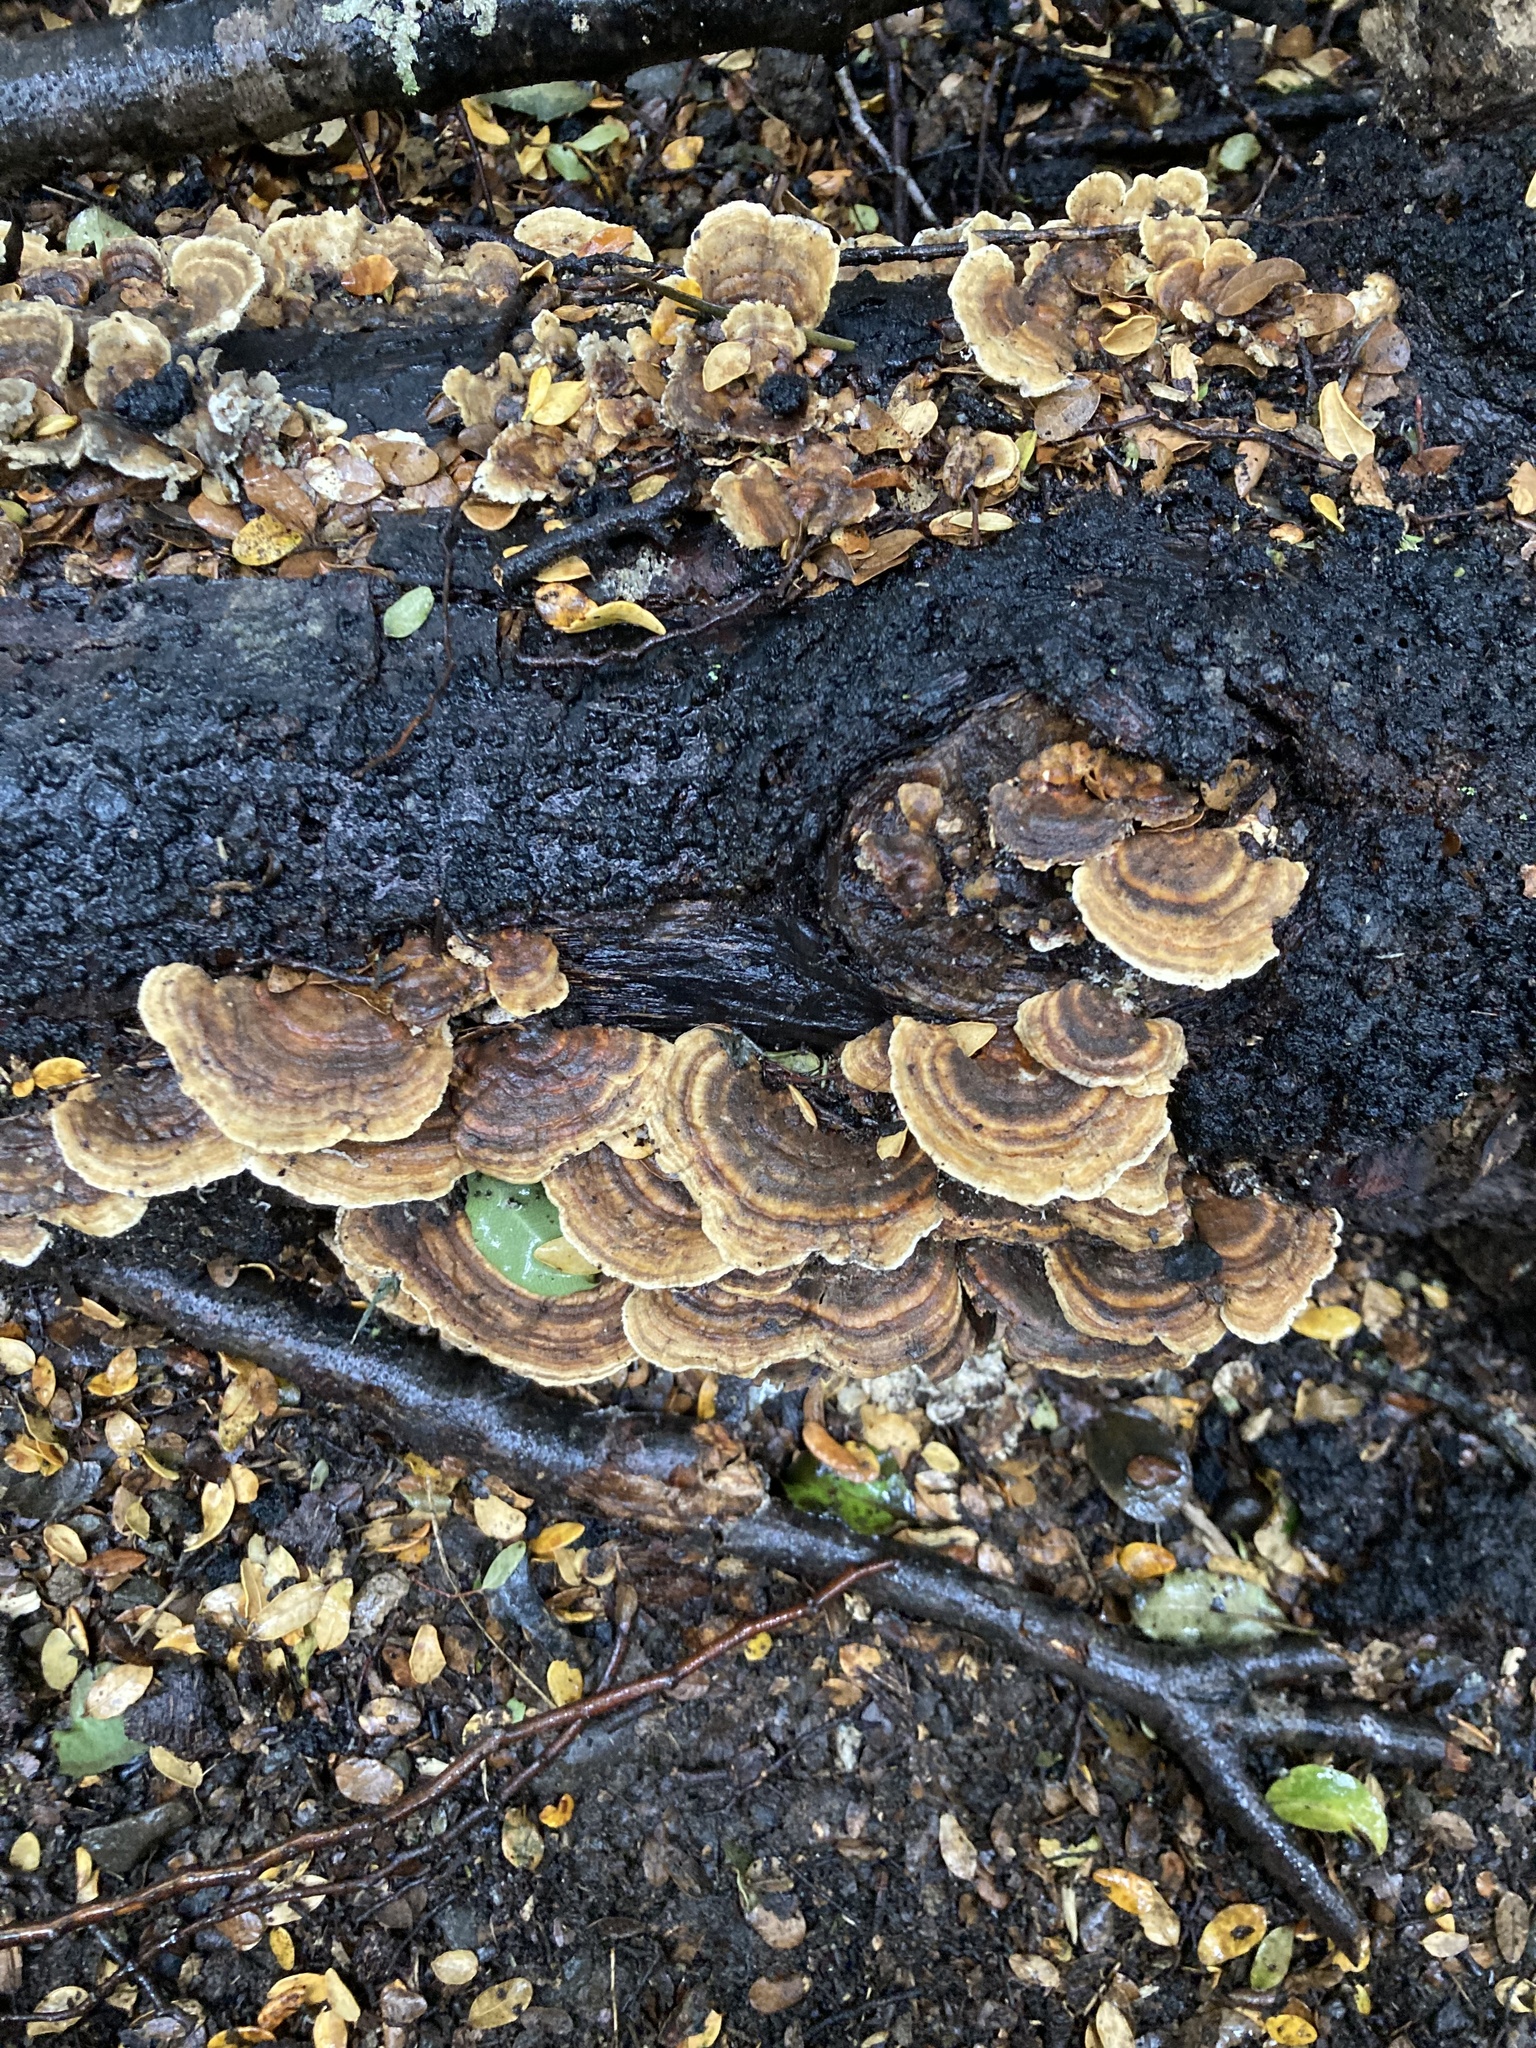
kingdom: Fungi
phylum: Basidiomycota
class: Agaricomycetes
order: Polyporales
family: Polyporaceae
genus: Trametes
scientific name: Trametes versicolor
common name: Turkeytail
